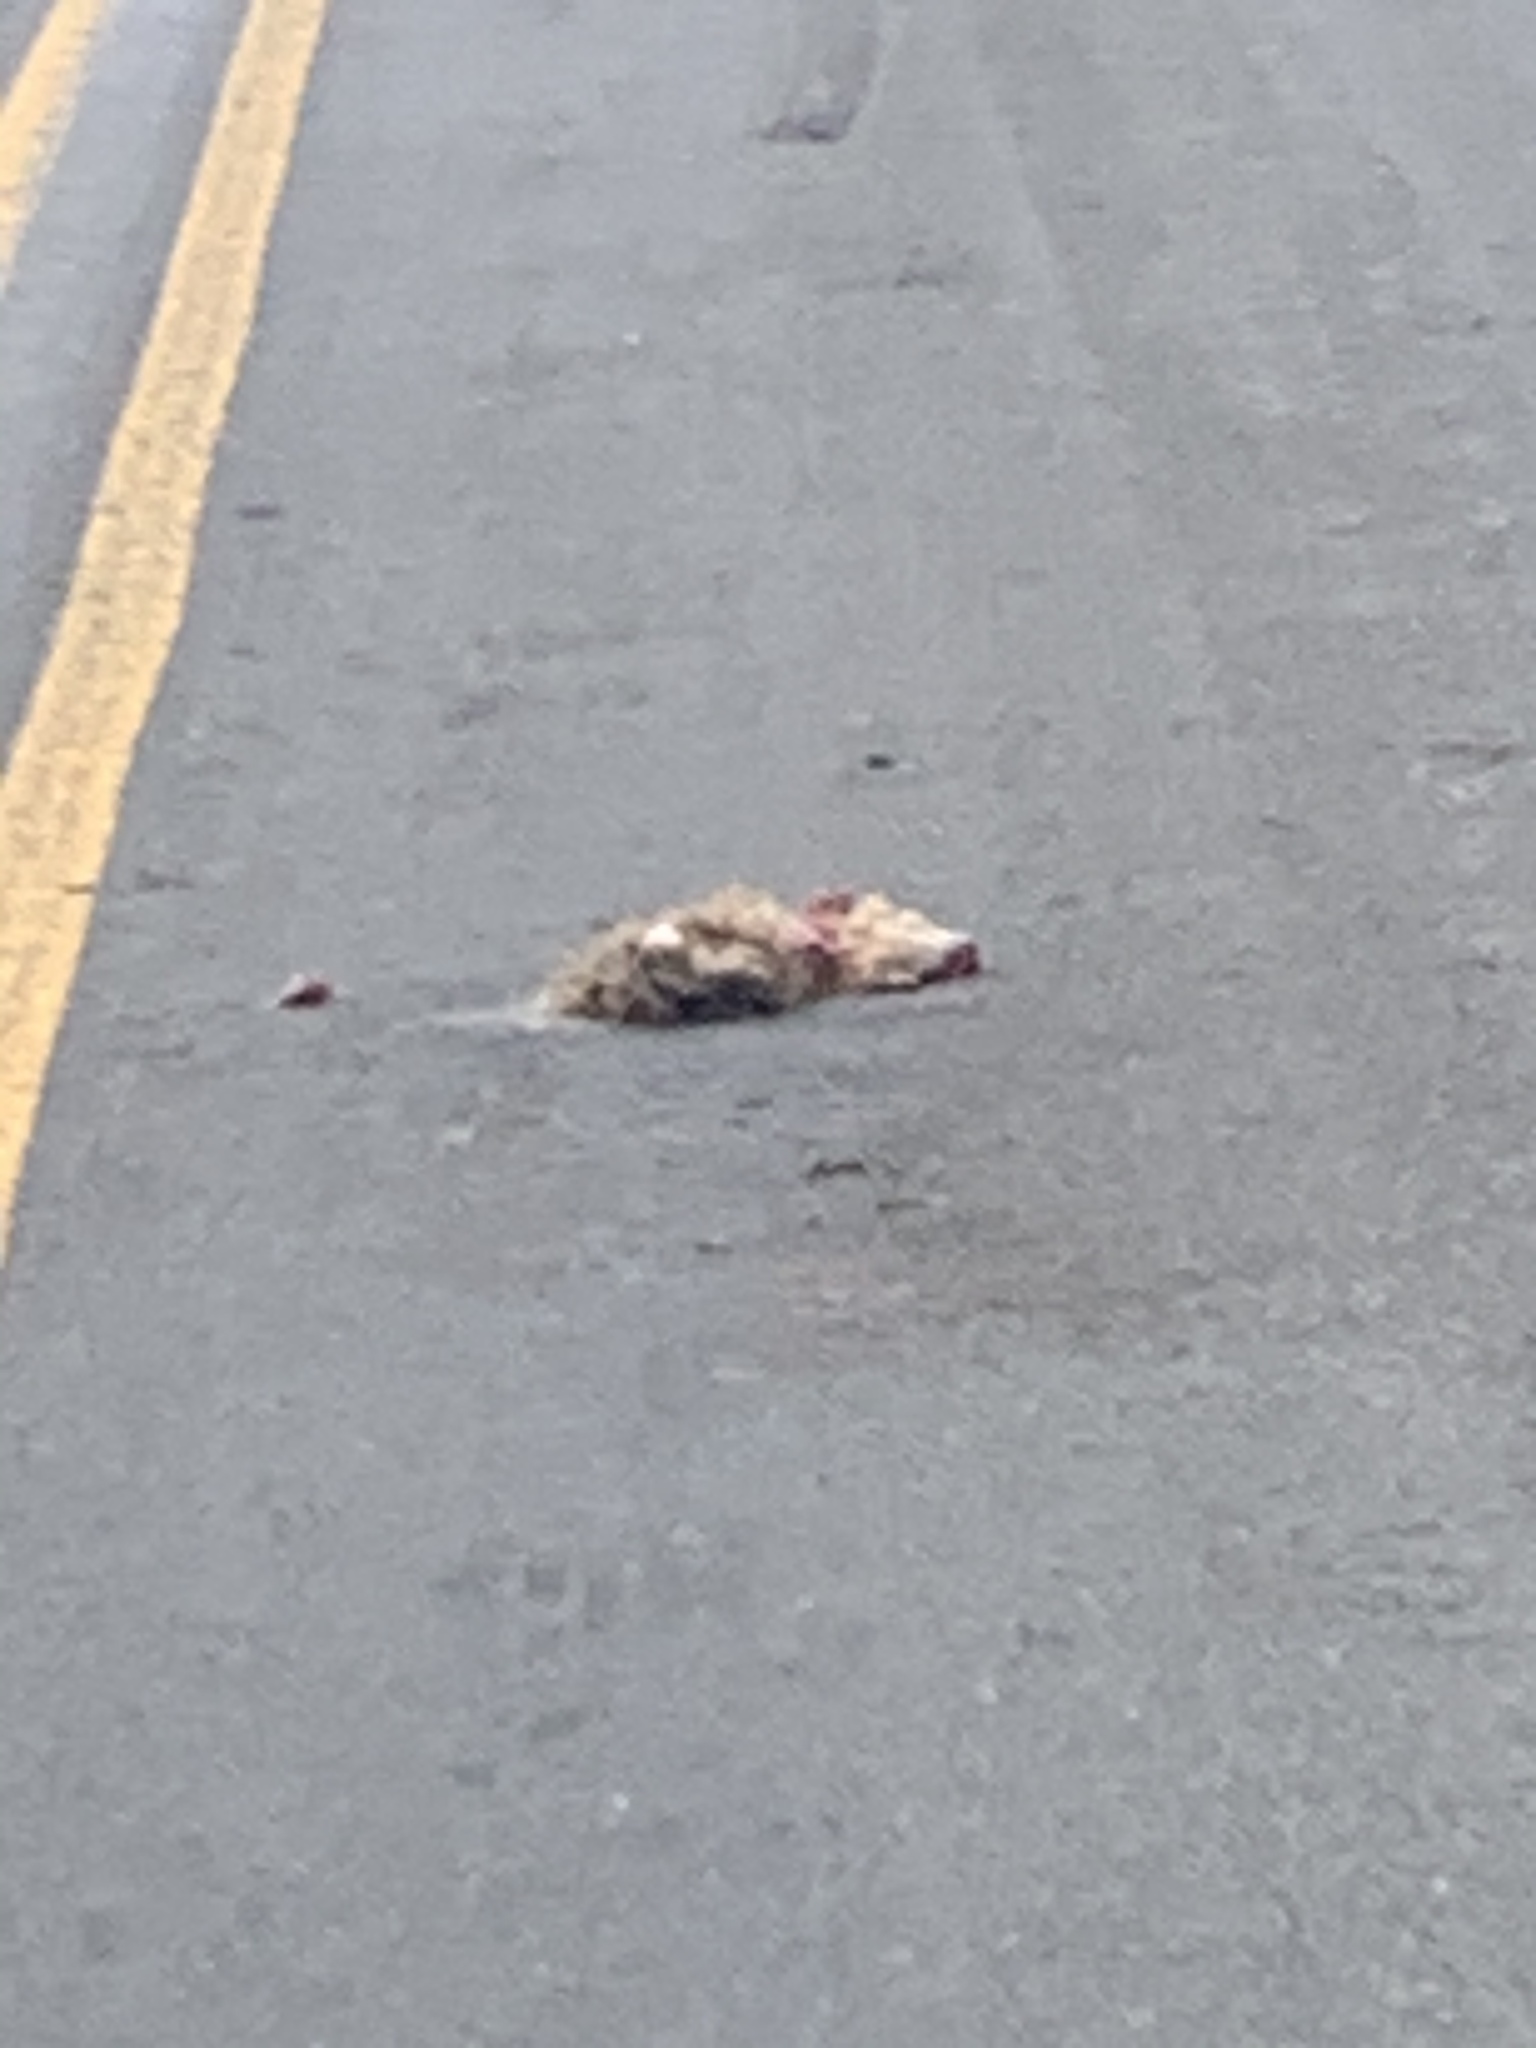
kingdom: Animalia
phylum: Chordata
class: Mammalia
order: Didelphimorphia
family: Didelphidae
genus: Didelphis
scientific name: Didelphis virginiana
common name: Virginia opossum
